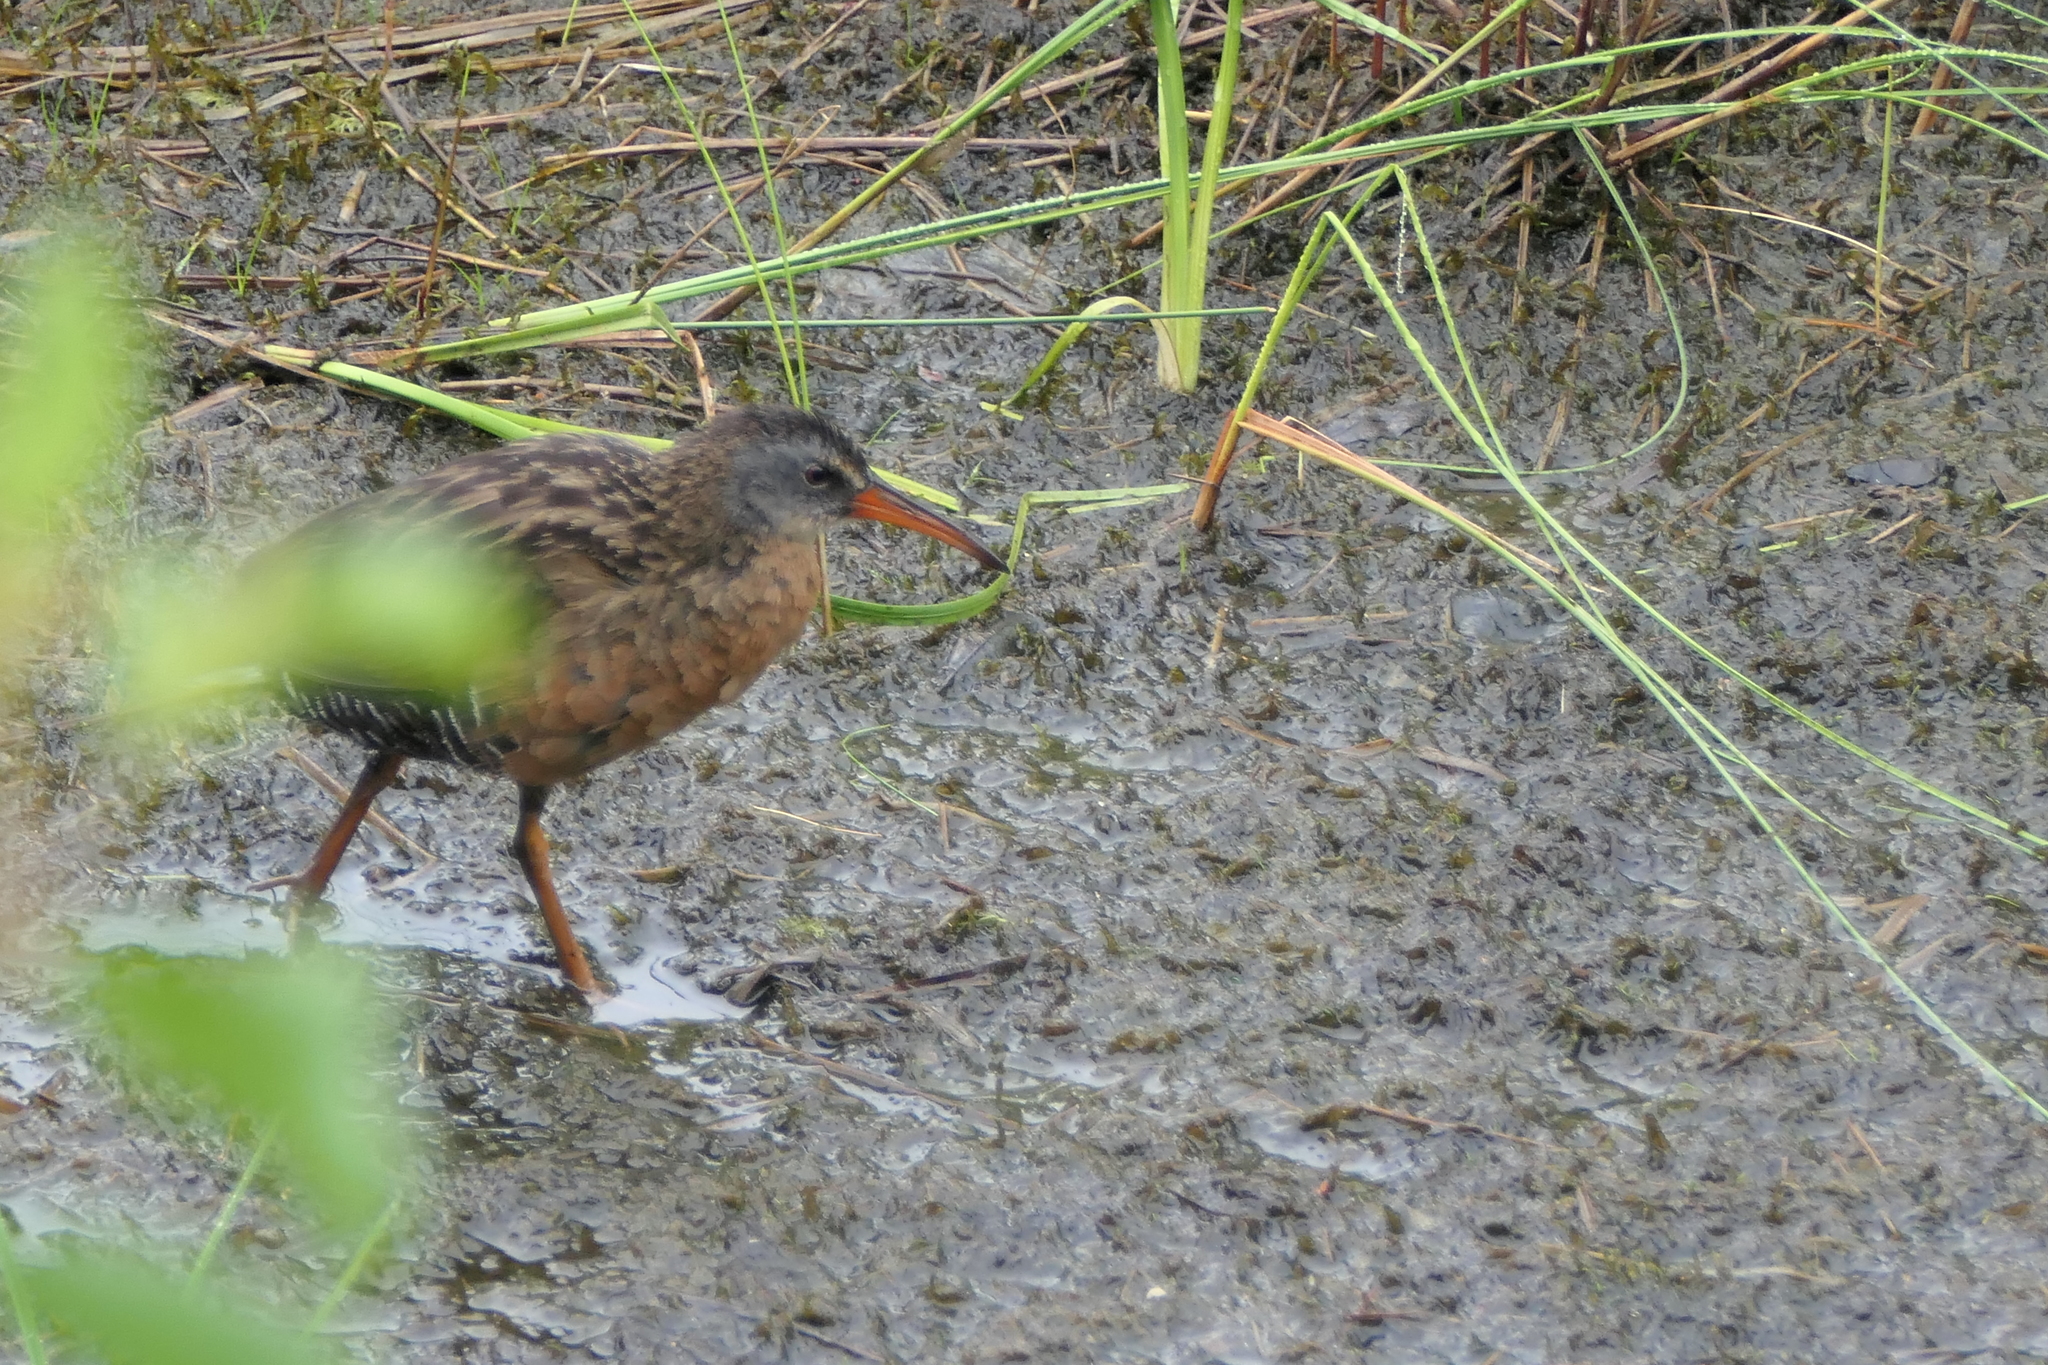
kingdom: Animalia
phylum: Chordata
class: Aves
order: Gruiformes
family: Rallidae
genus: Rallus
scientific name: Rallus limicola
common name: Virginia rail
